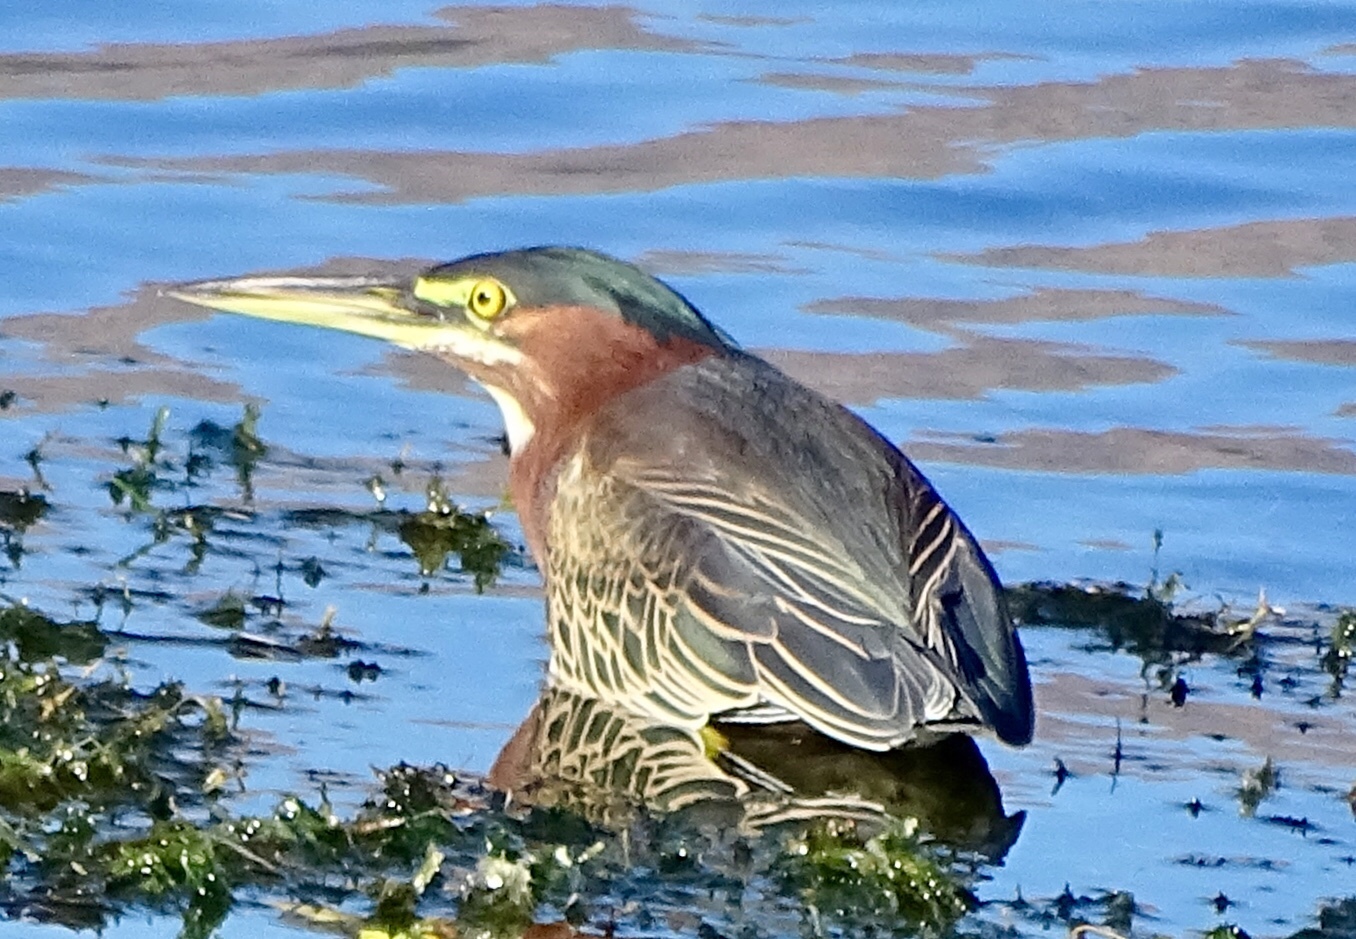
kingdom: Animalia
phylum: Chordata
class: Aves
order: Pelecaniformes
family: Ardeidae
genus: Butorides
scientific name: Butorides virescens
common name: Green heron
